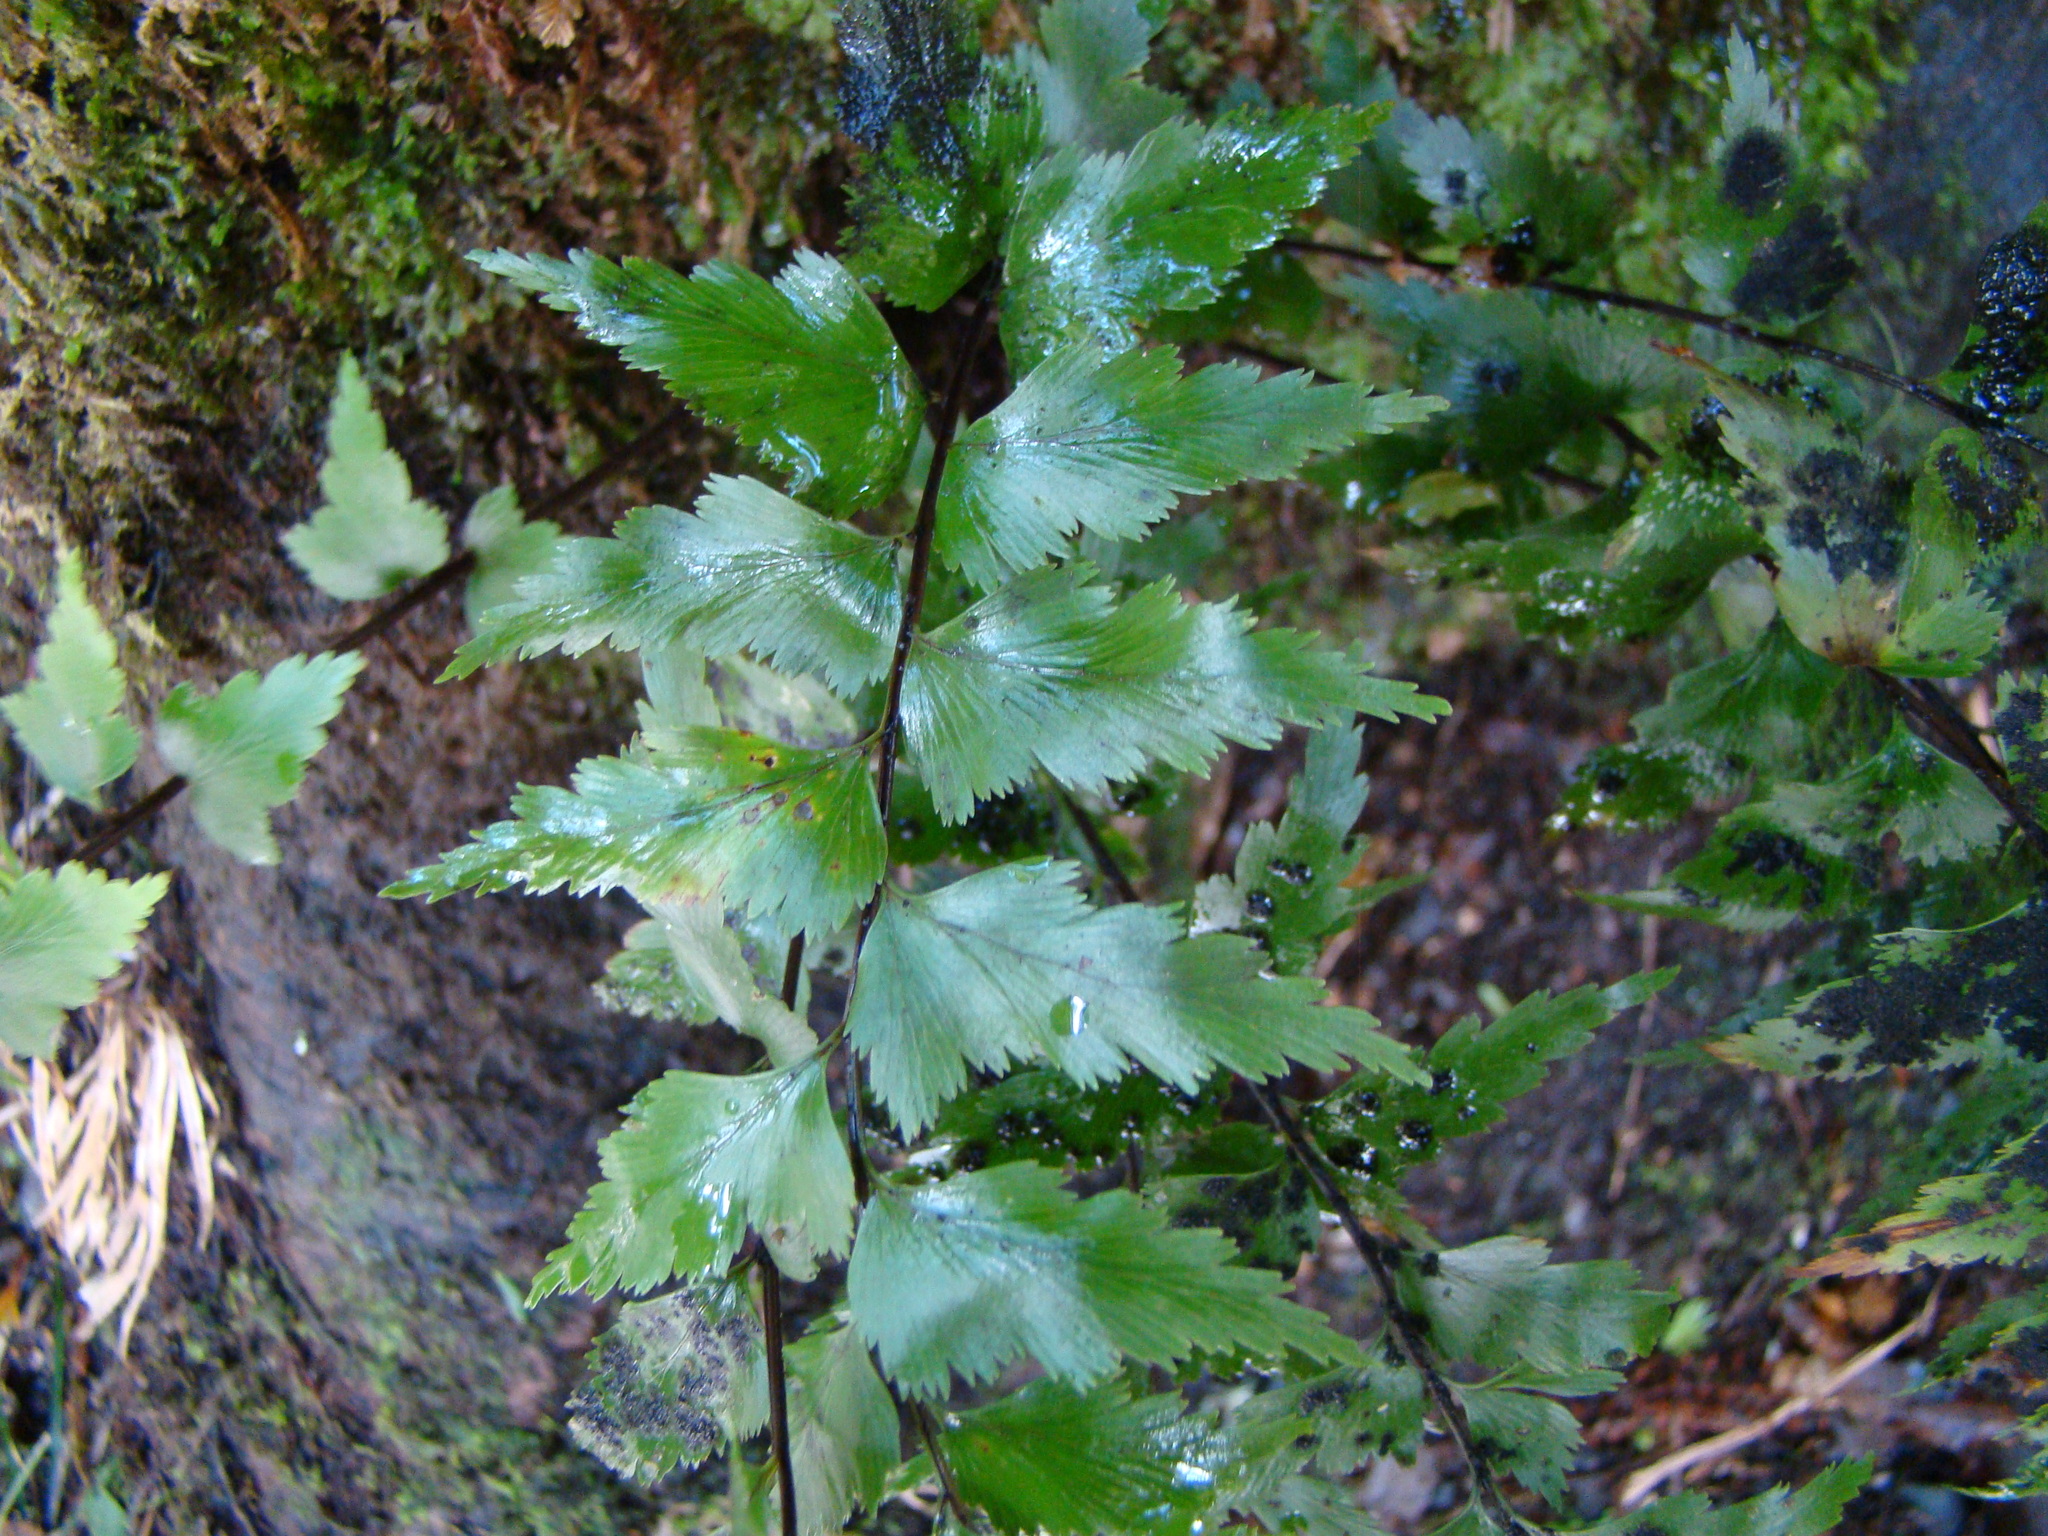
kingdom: Plantae
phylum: Tracheophyta
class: Polypodiopsida
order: Polypodiales
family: Aspleniaceae
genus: Asplenium
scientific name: Asplenium polyodon
